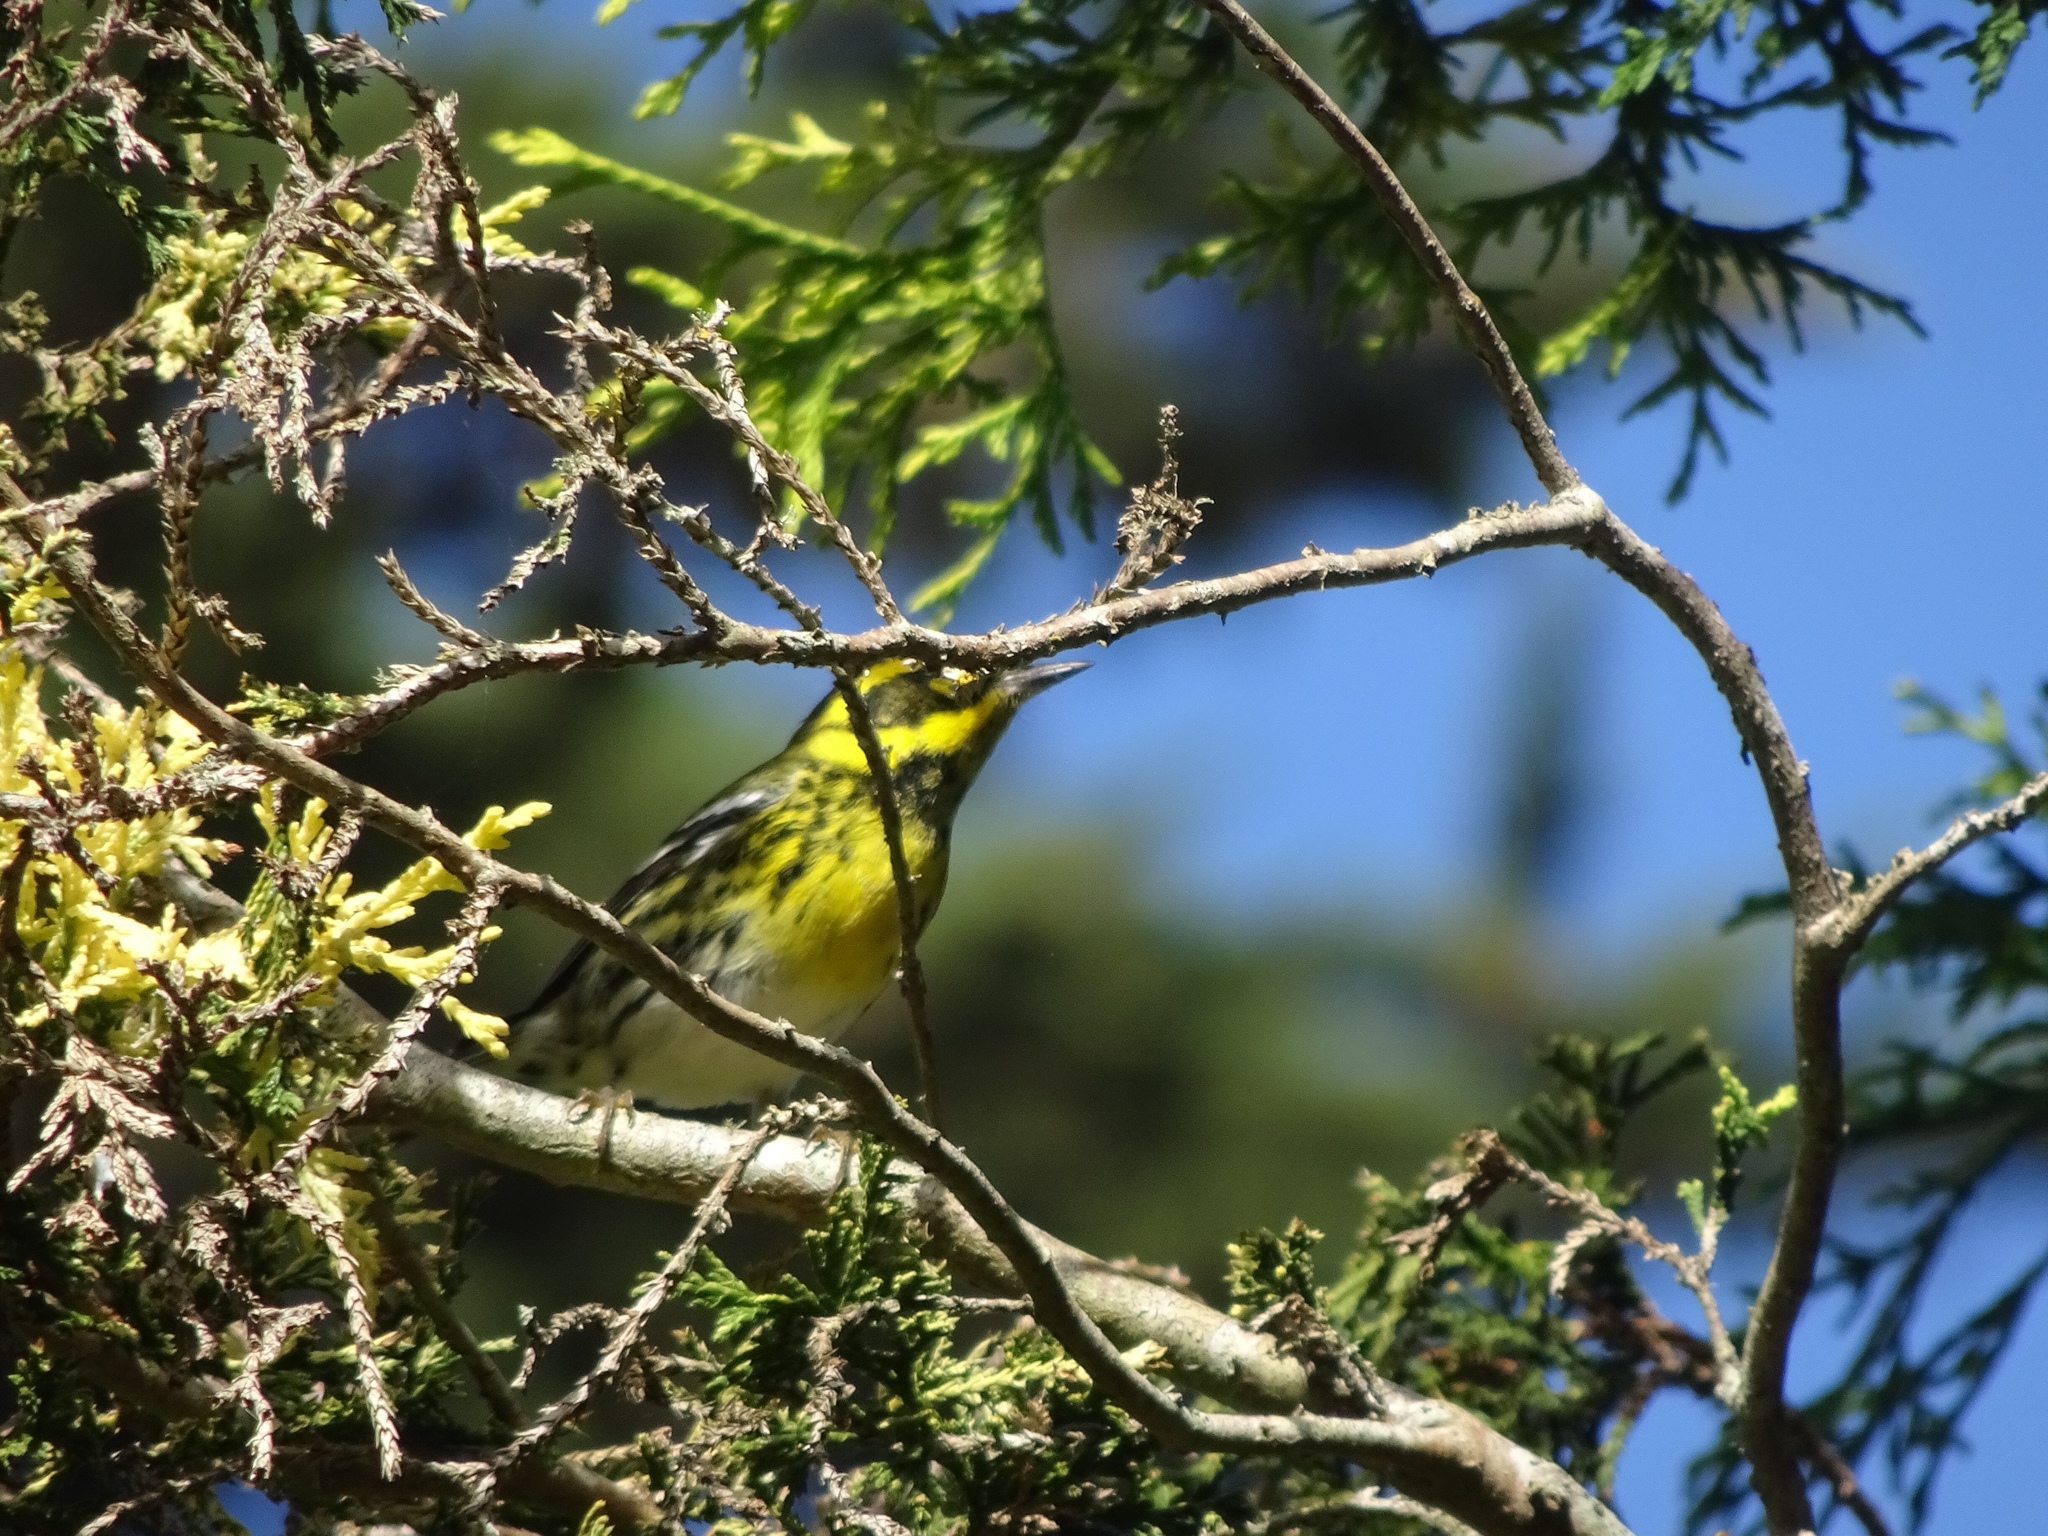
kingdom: Animalia
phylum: Chordata
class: Aves
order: Passeriformes
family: Parulidae
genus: Setophaga
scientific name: Setophaga townsendi
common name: Townsend's warbler
